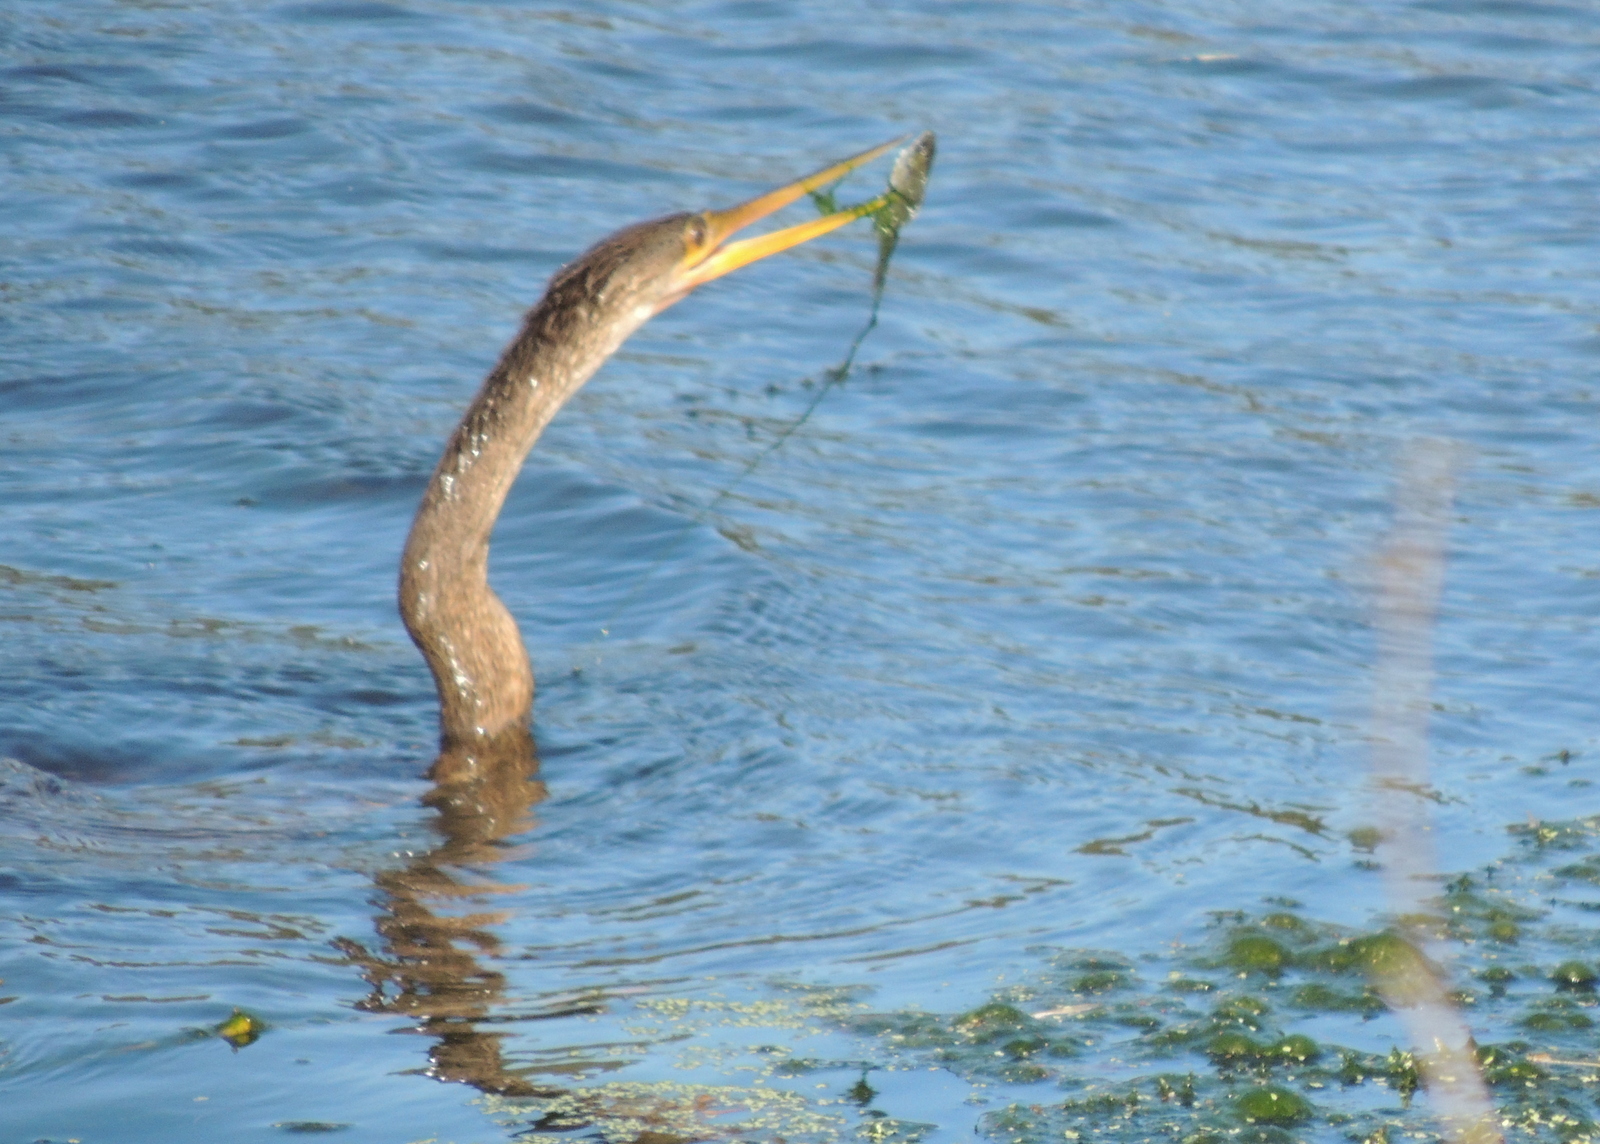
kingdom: Animalia
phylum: Chordata
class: Aves
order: Suliformes
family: Anhingidae
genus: Anhinga
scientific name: Anhinga anhinga
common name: Anhinga
